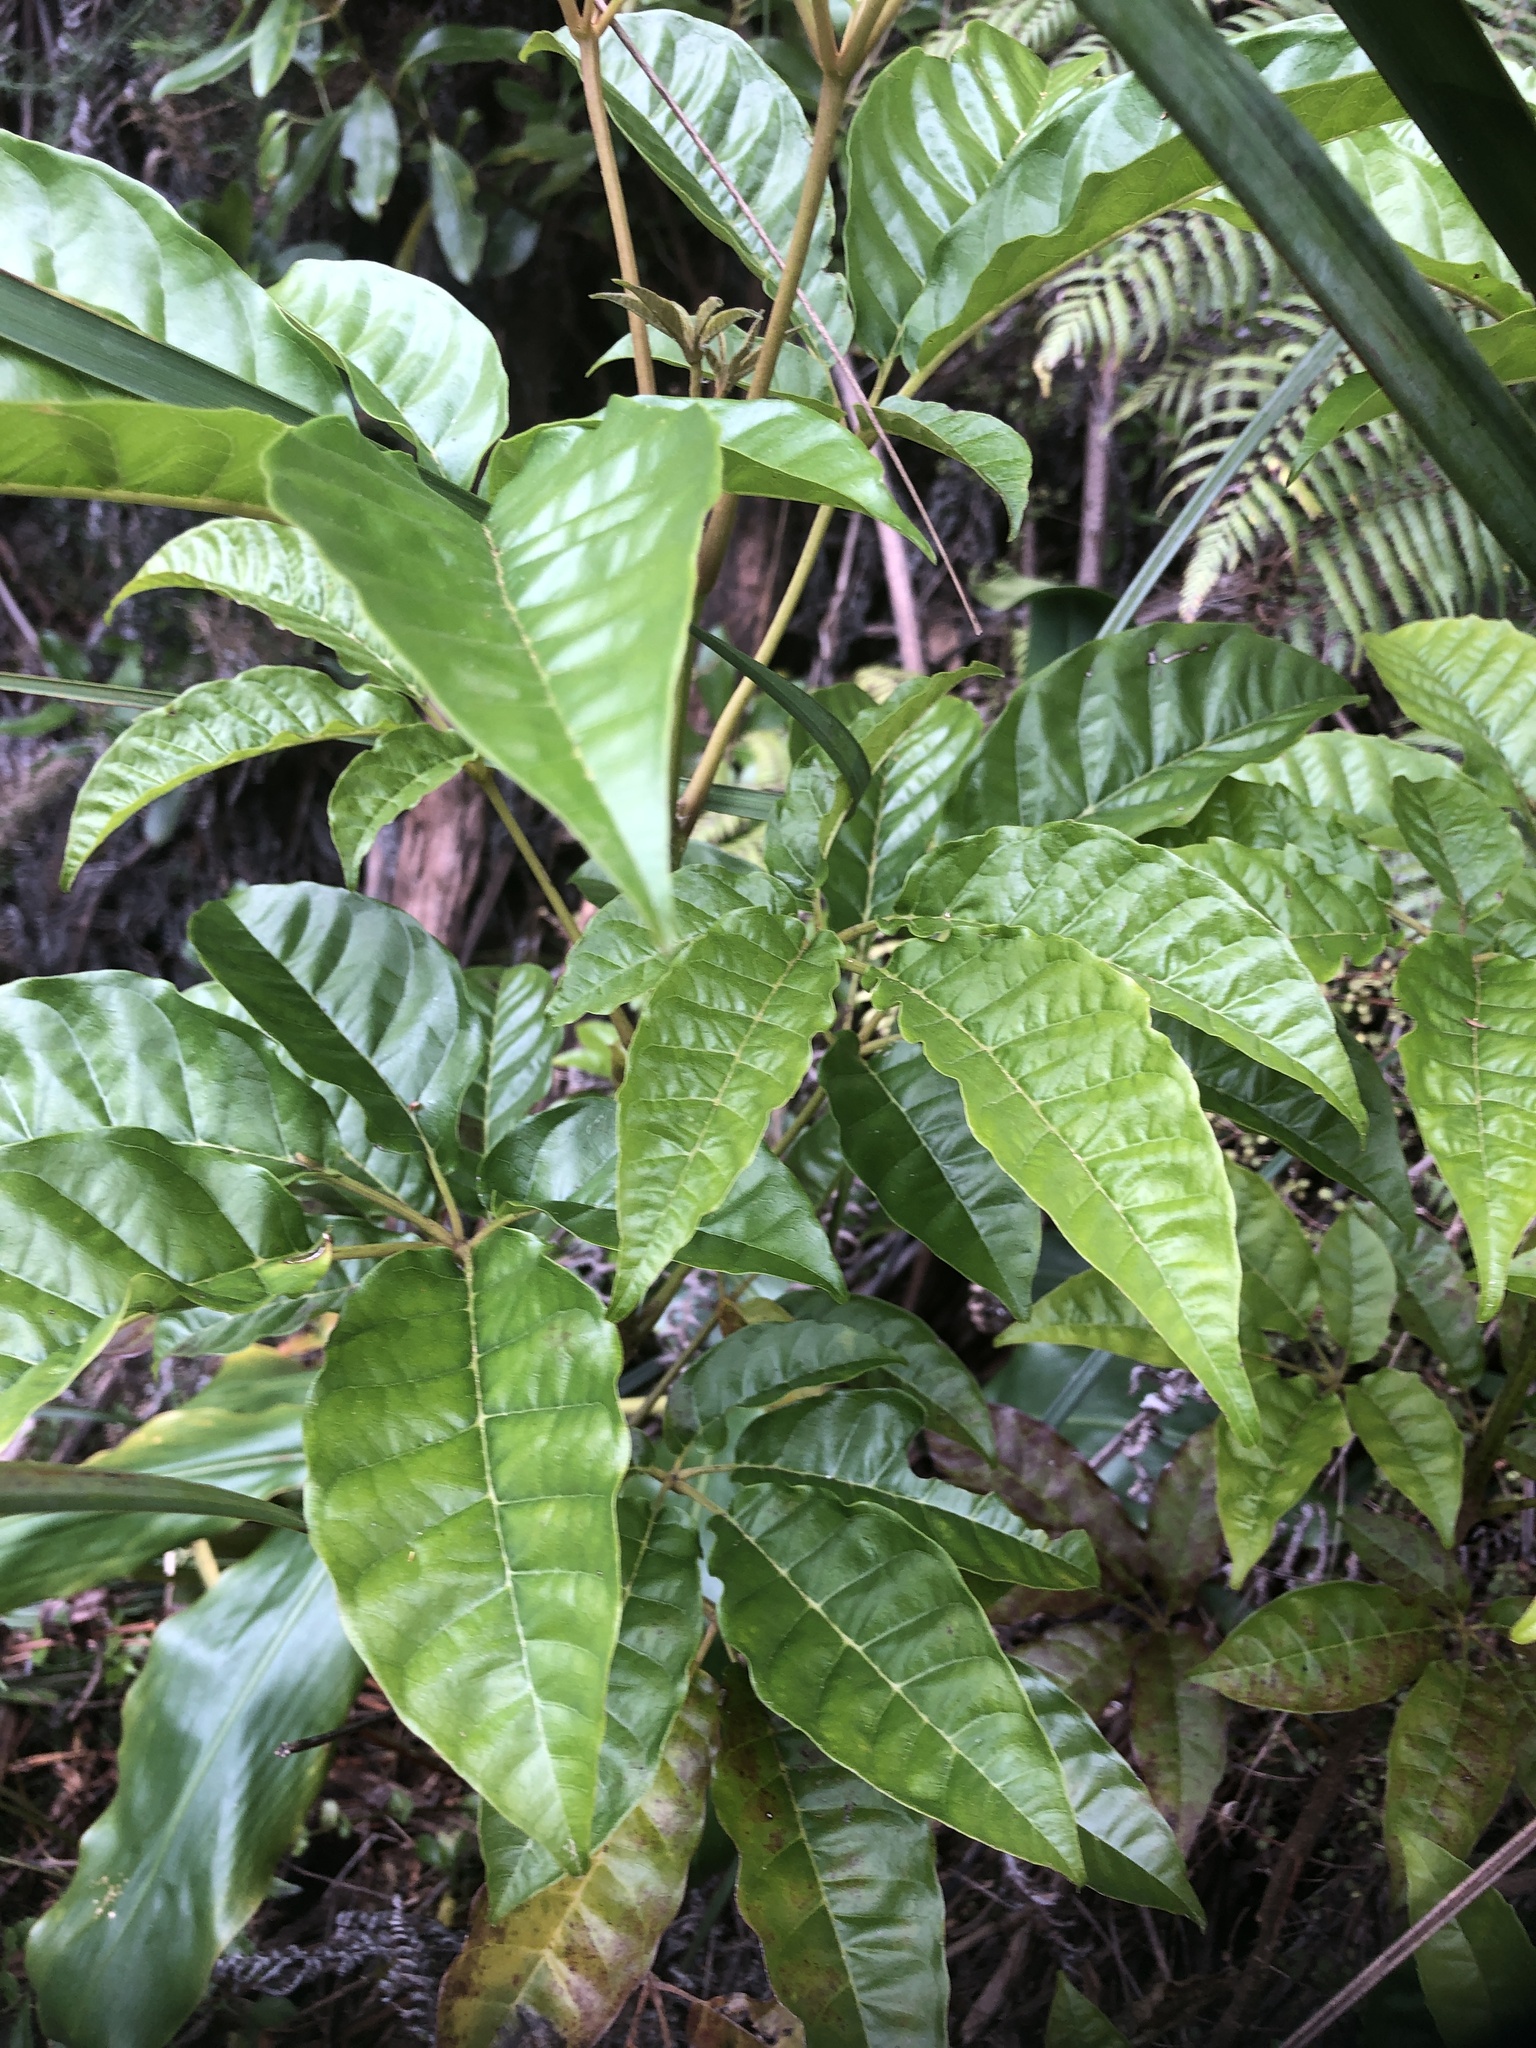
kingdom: Plantae
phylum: Tracheophyta
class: Magnoliopsida
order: Lamiales
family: Lamiaceae
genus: Vitex
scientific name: Vitex lucens
